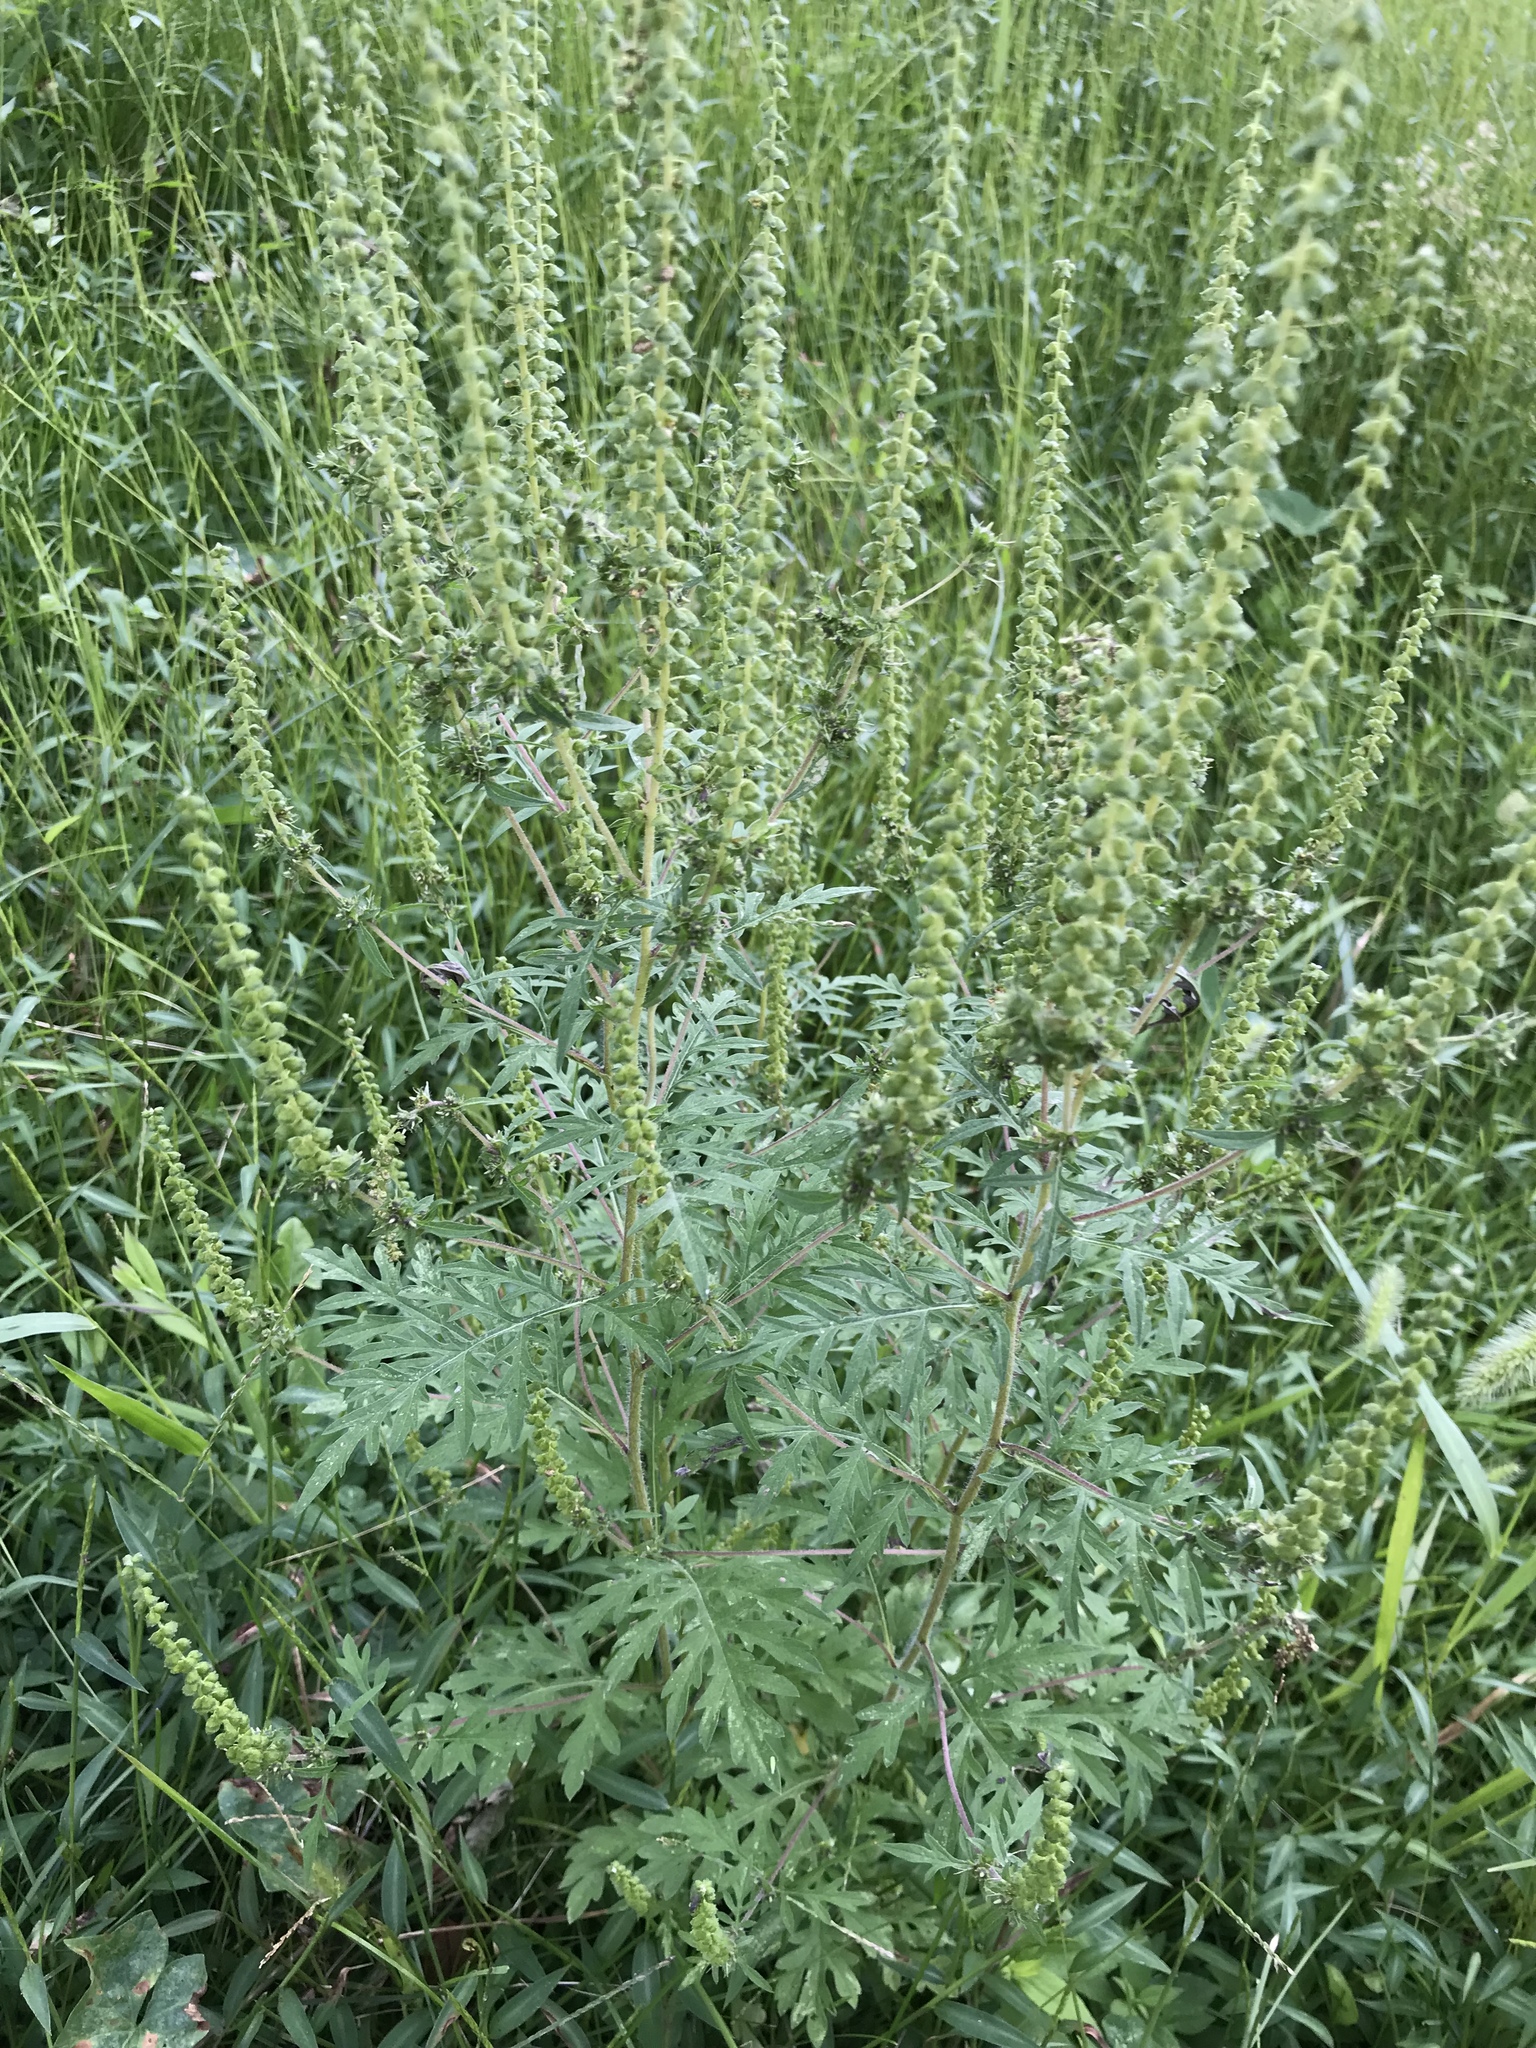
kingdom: Plantae
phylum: Tracheophyta
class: Magnoliopsida
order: Asterales
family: Asteraceae
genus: Ambrosia
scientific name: Ambrosia artemisiifolia
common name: Annual ragweed
